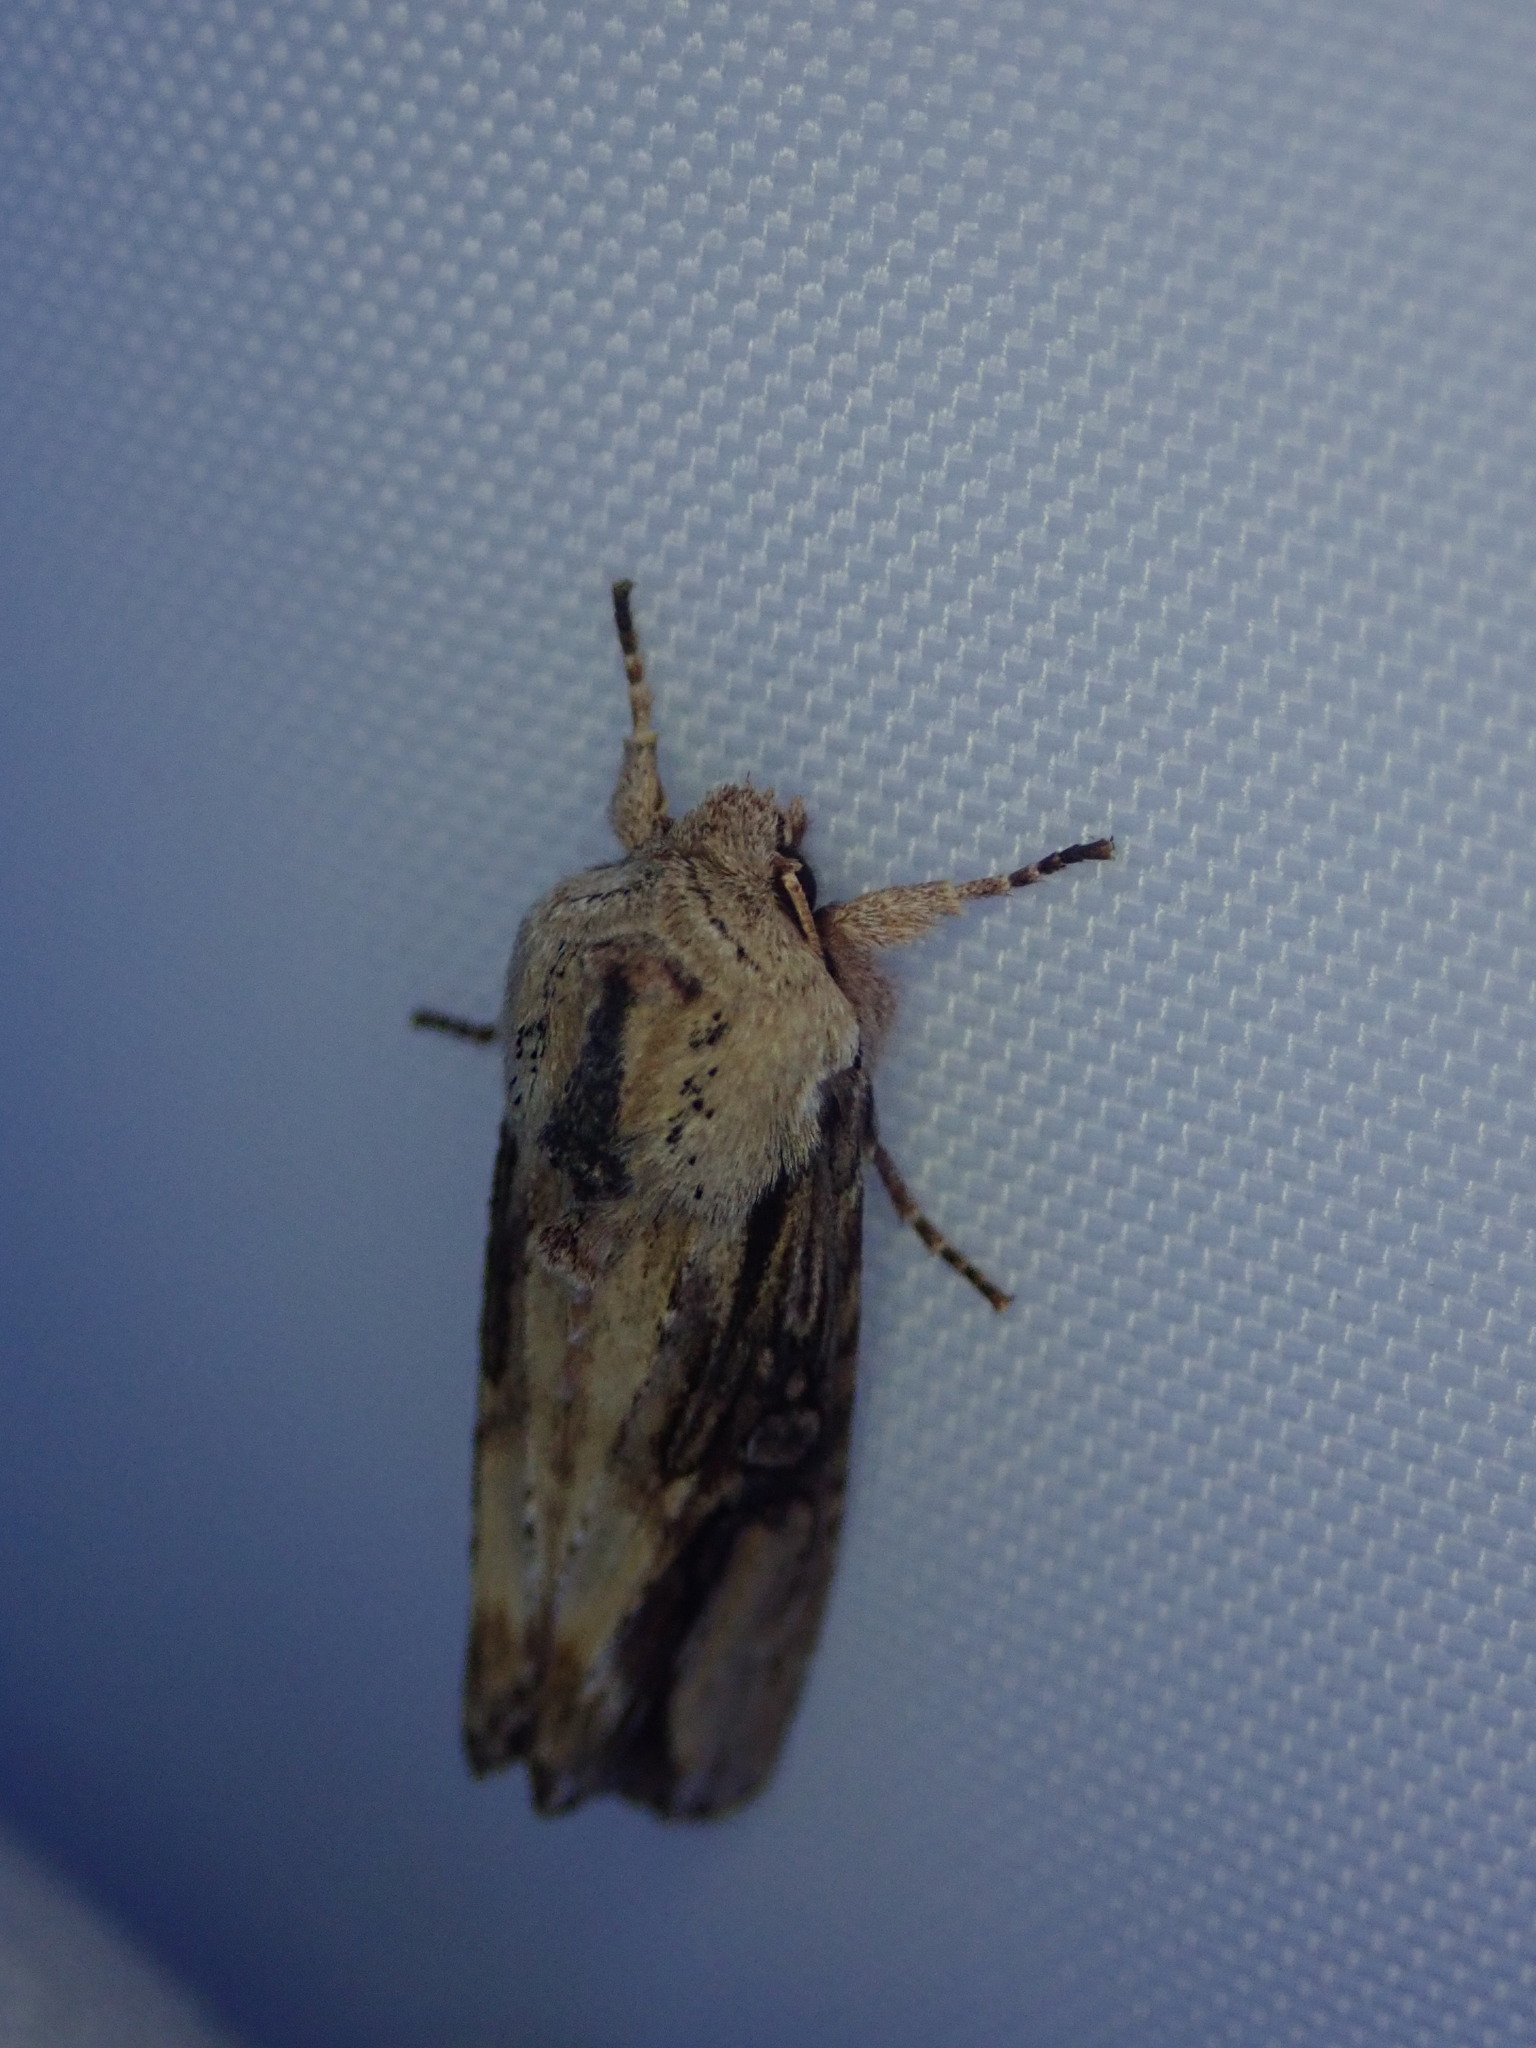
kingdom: Animalia
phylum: Arthropoda
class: Insecta
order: Lepidoptera
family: Noctuidae
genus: Egira
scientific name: Egira conspicillaris
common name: Silver cloud
